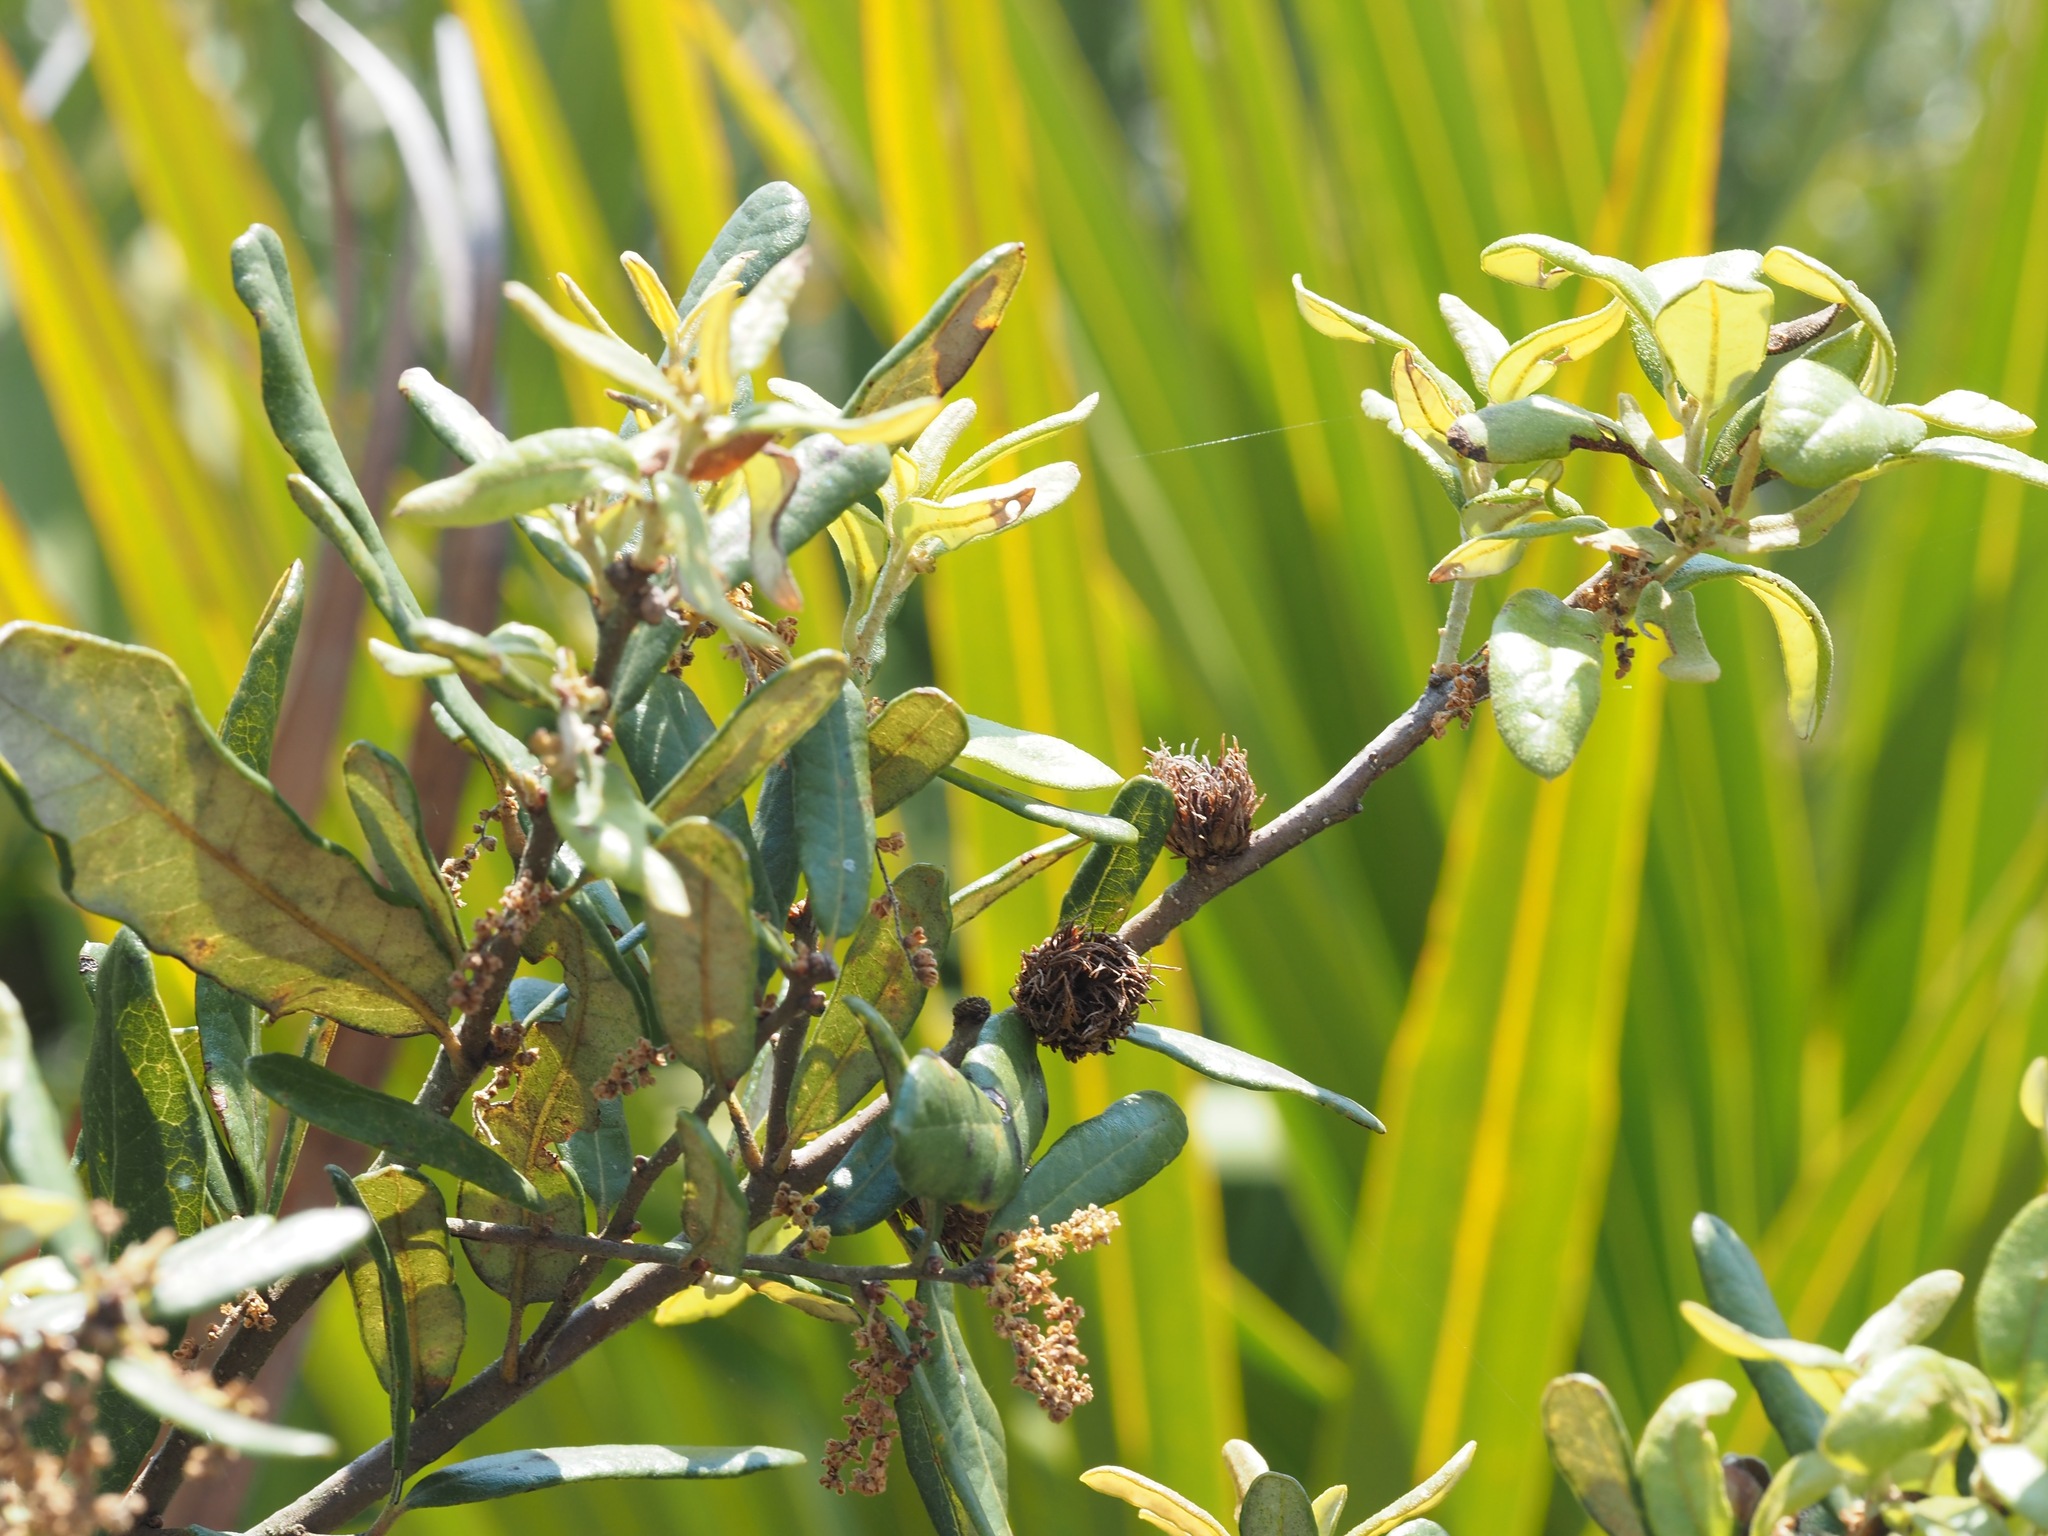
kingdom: Animalia
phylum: Arthropoda
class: Insecta
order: Hymenoptera
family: Cynipidae
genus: Andricus
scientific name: Andricus quercusfoliatus
